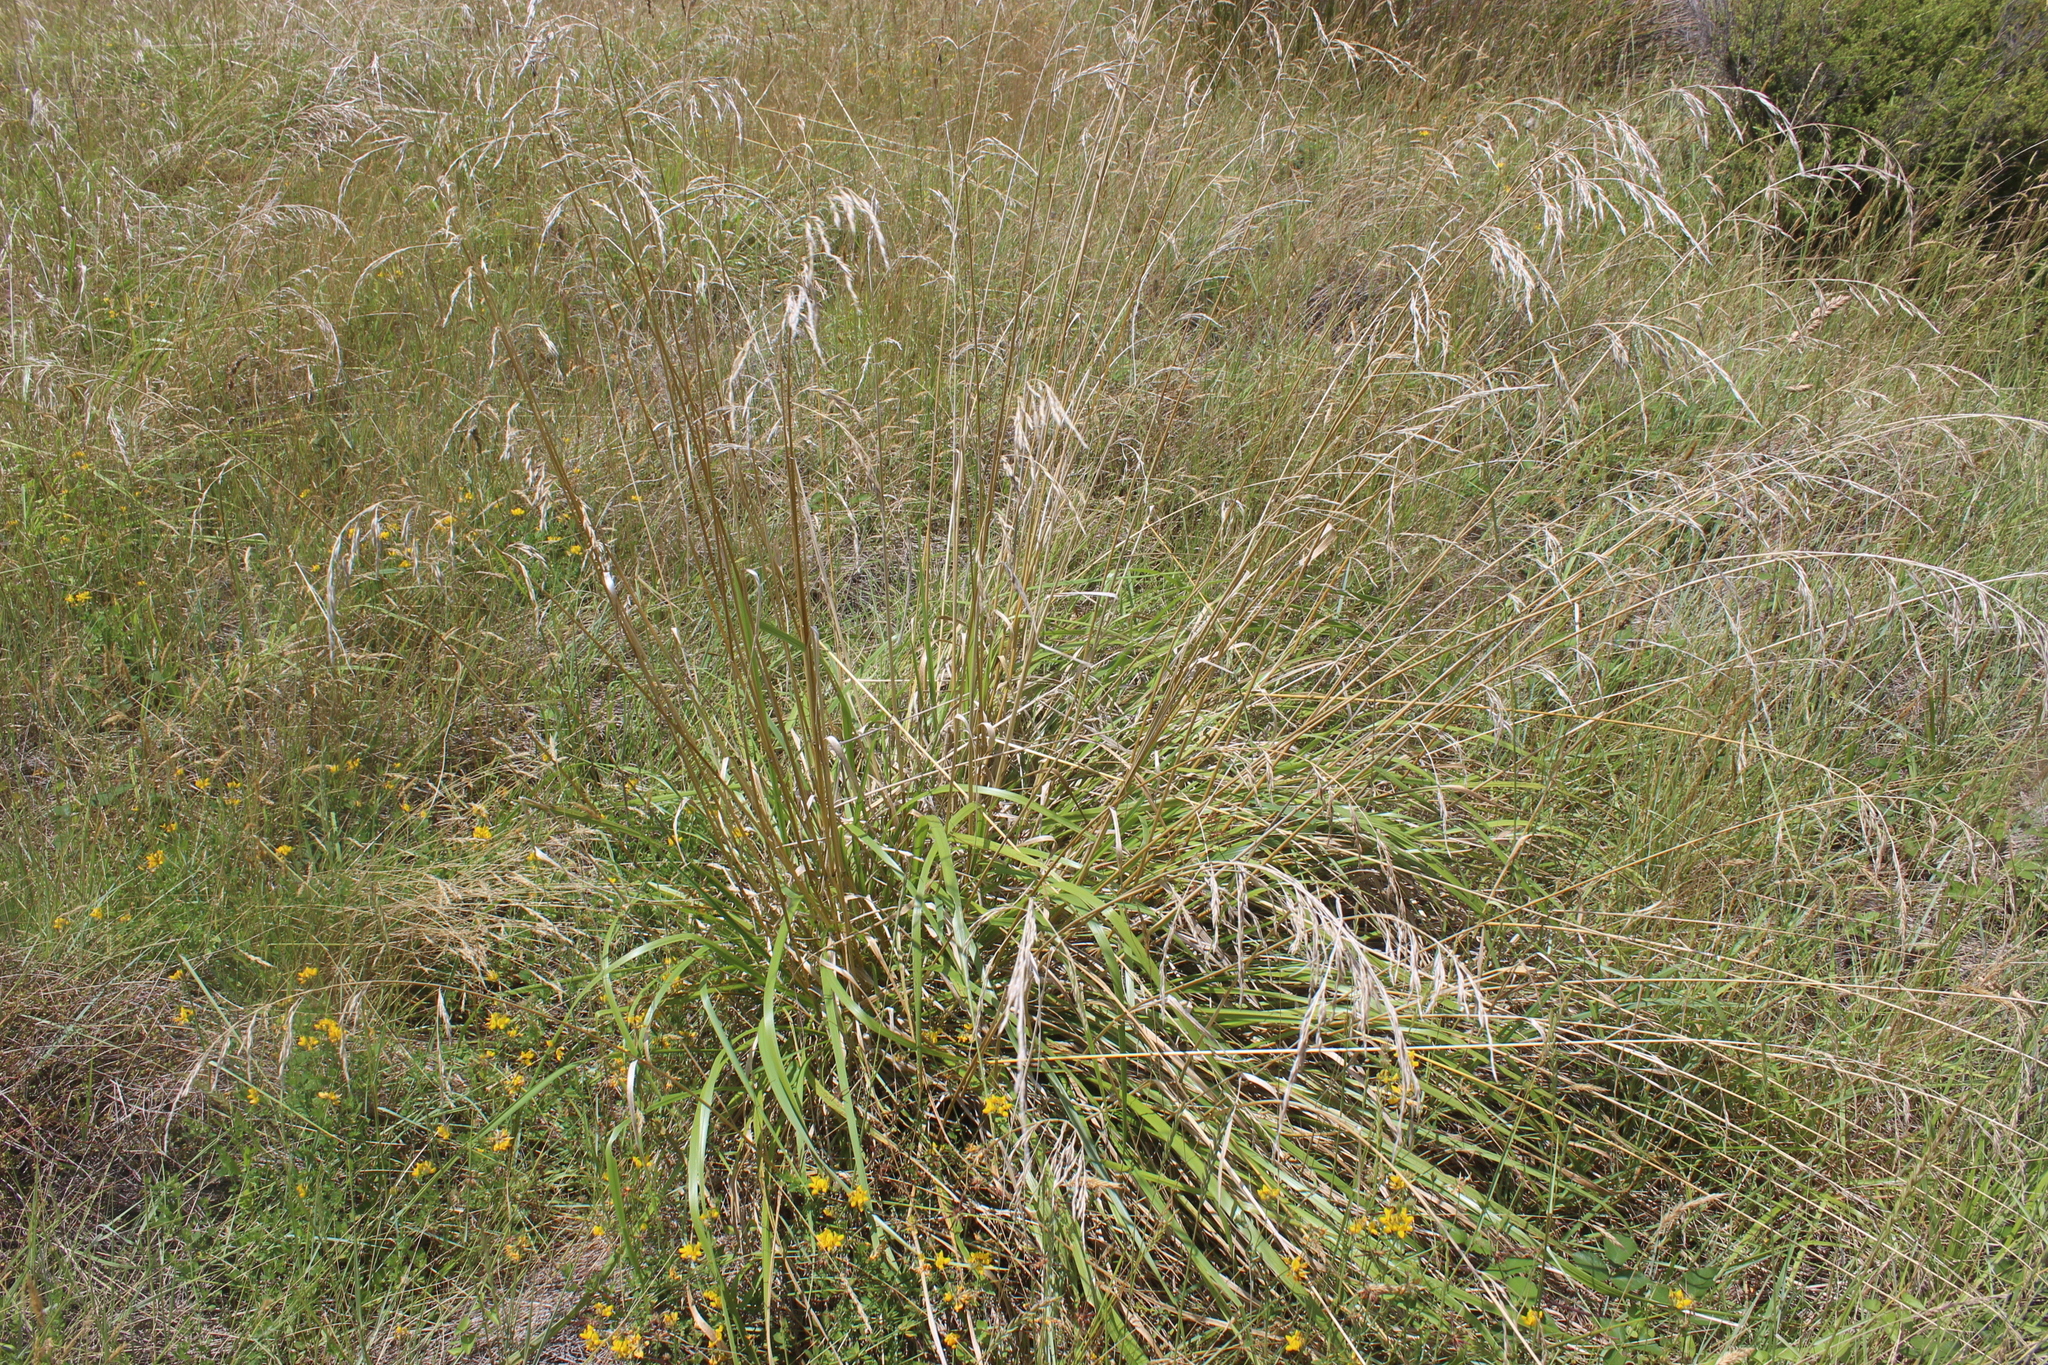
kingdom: Plantae
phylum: Tracheophyta
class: Liliopsida
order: Poales
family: Poaceae
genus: Lolium
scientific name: Lolium arundinaceum
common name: Reed fescue
